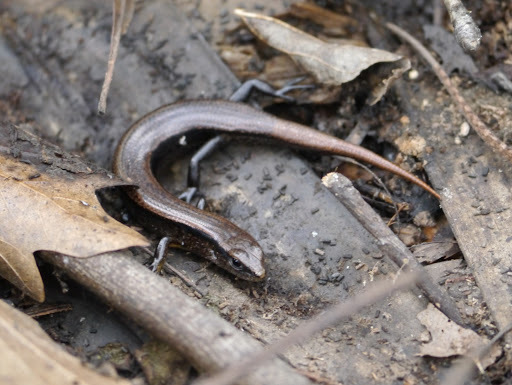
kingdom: Animalia
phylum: Chordata
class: Squamata
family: Scincidae
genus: Scincella
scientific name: Scincella lateralis
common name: Ground skink
